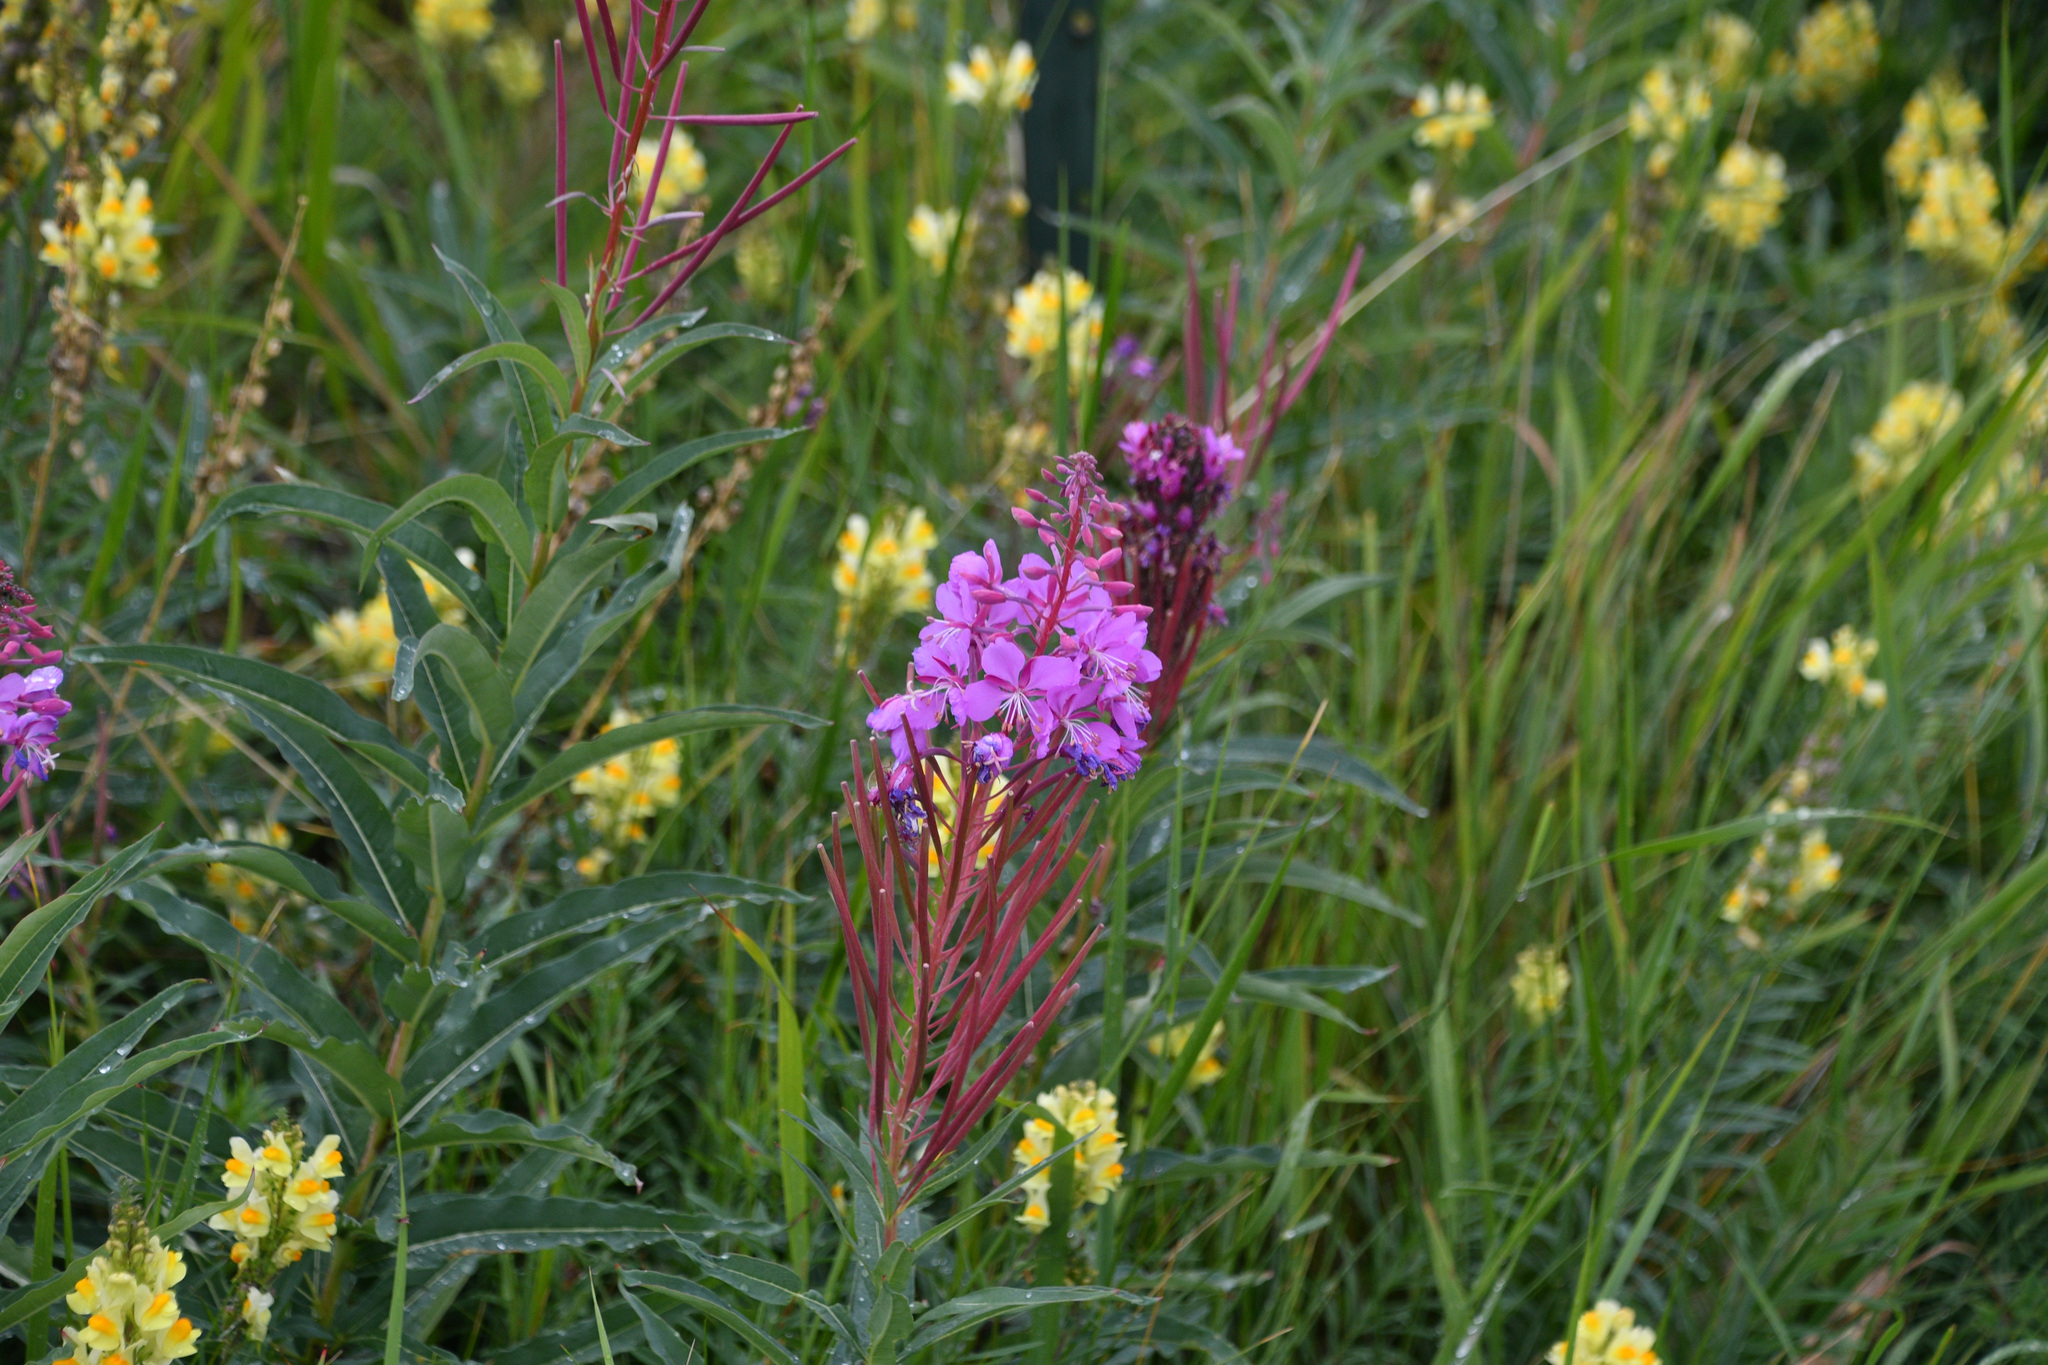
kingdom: Plantae
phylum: Tracheophyta
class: Magnoliopsida
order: Myrtales
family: Onagraceae
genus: Chamaenerion
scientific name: Chamaenerion angustifolium
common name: Fireweed
